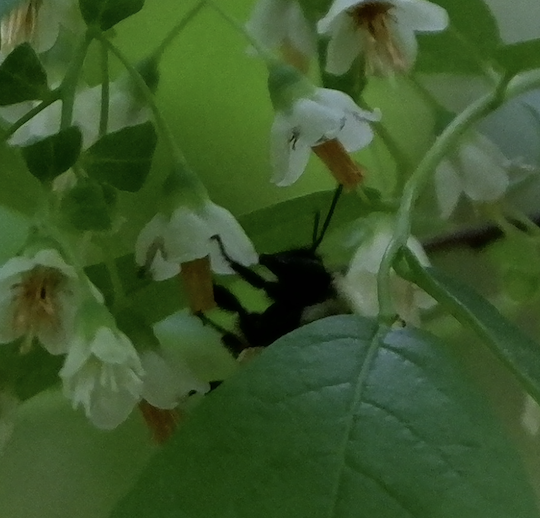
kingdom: Animalia
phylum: Arthropoda
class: Insecta
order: Hymenoptera
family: Apidae
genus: Bombus
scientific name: Bombus
